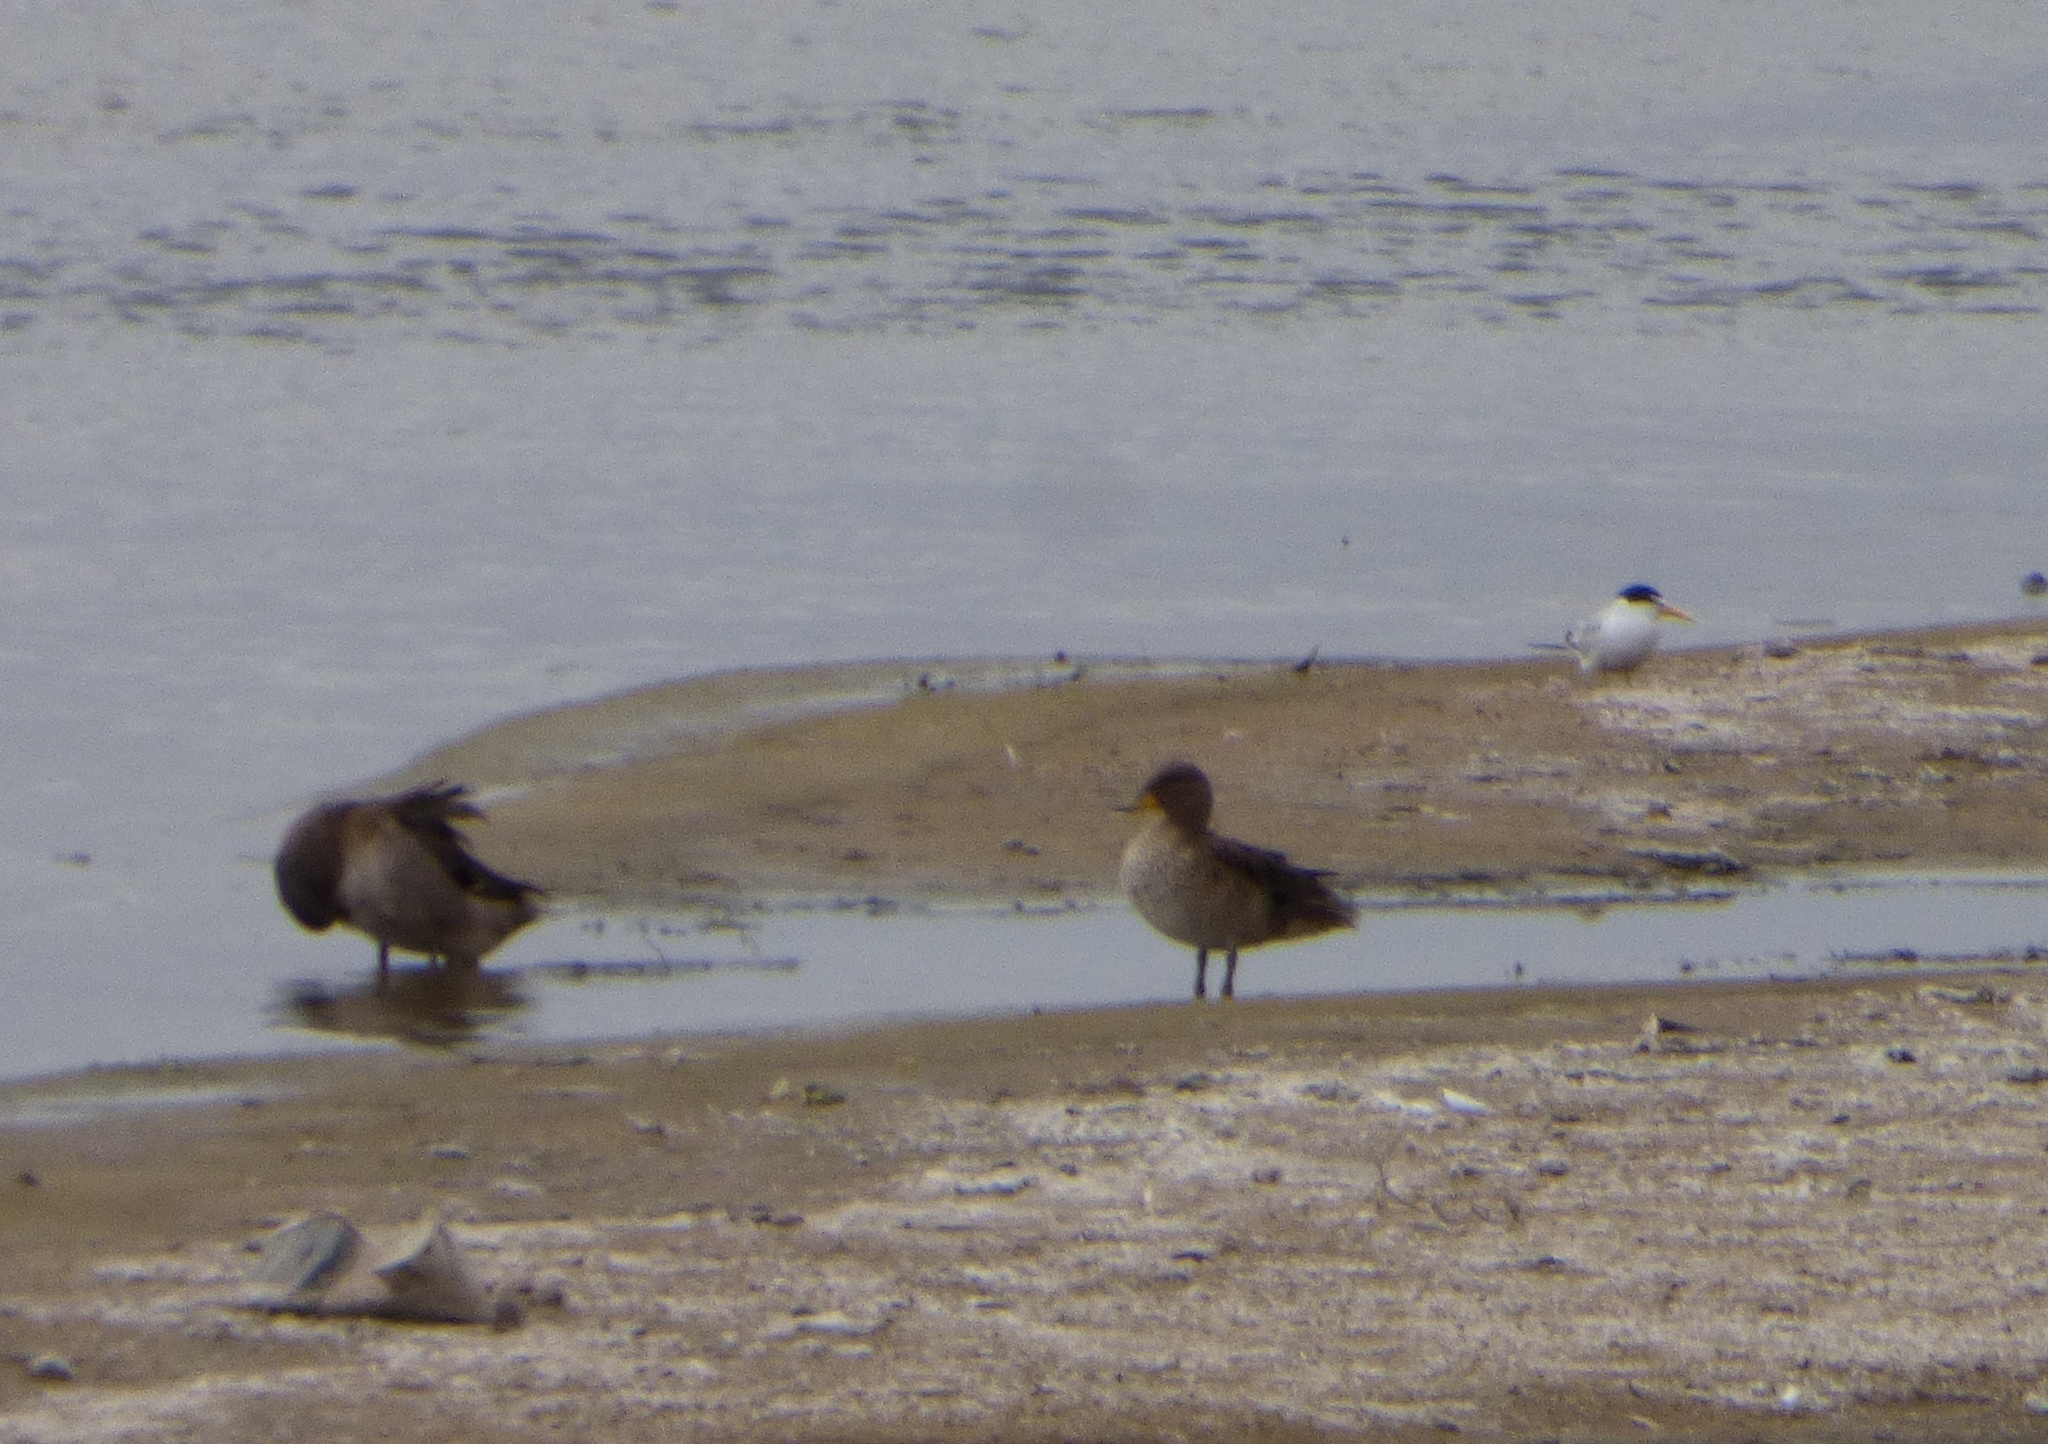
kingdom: Animalia
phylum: Chordata
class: Aves
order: Anseriformes
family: Anatidae
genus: Anas
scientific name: Anas flavirostris
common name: Yellow-billed teal
